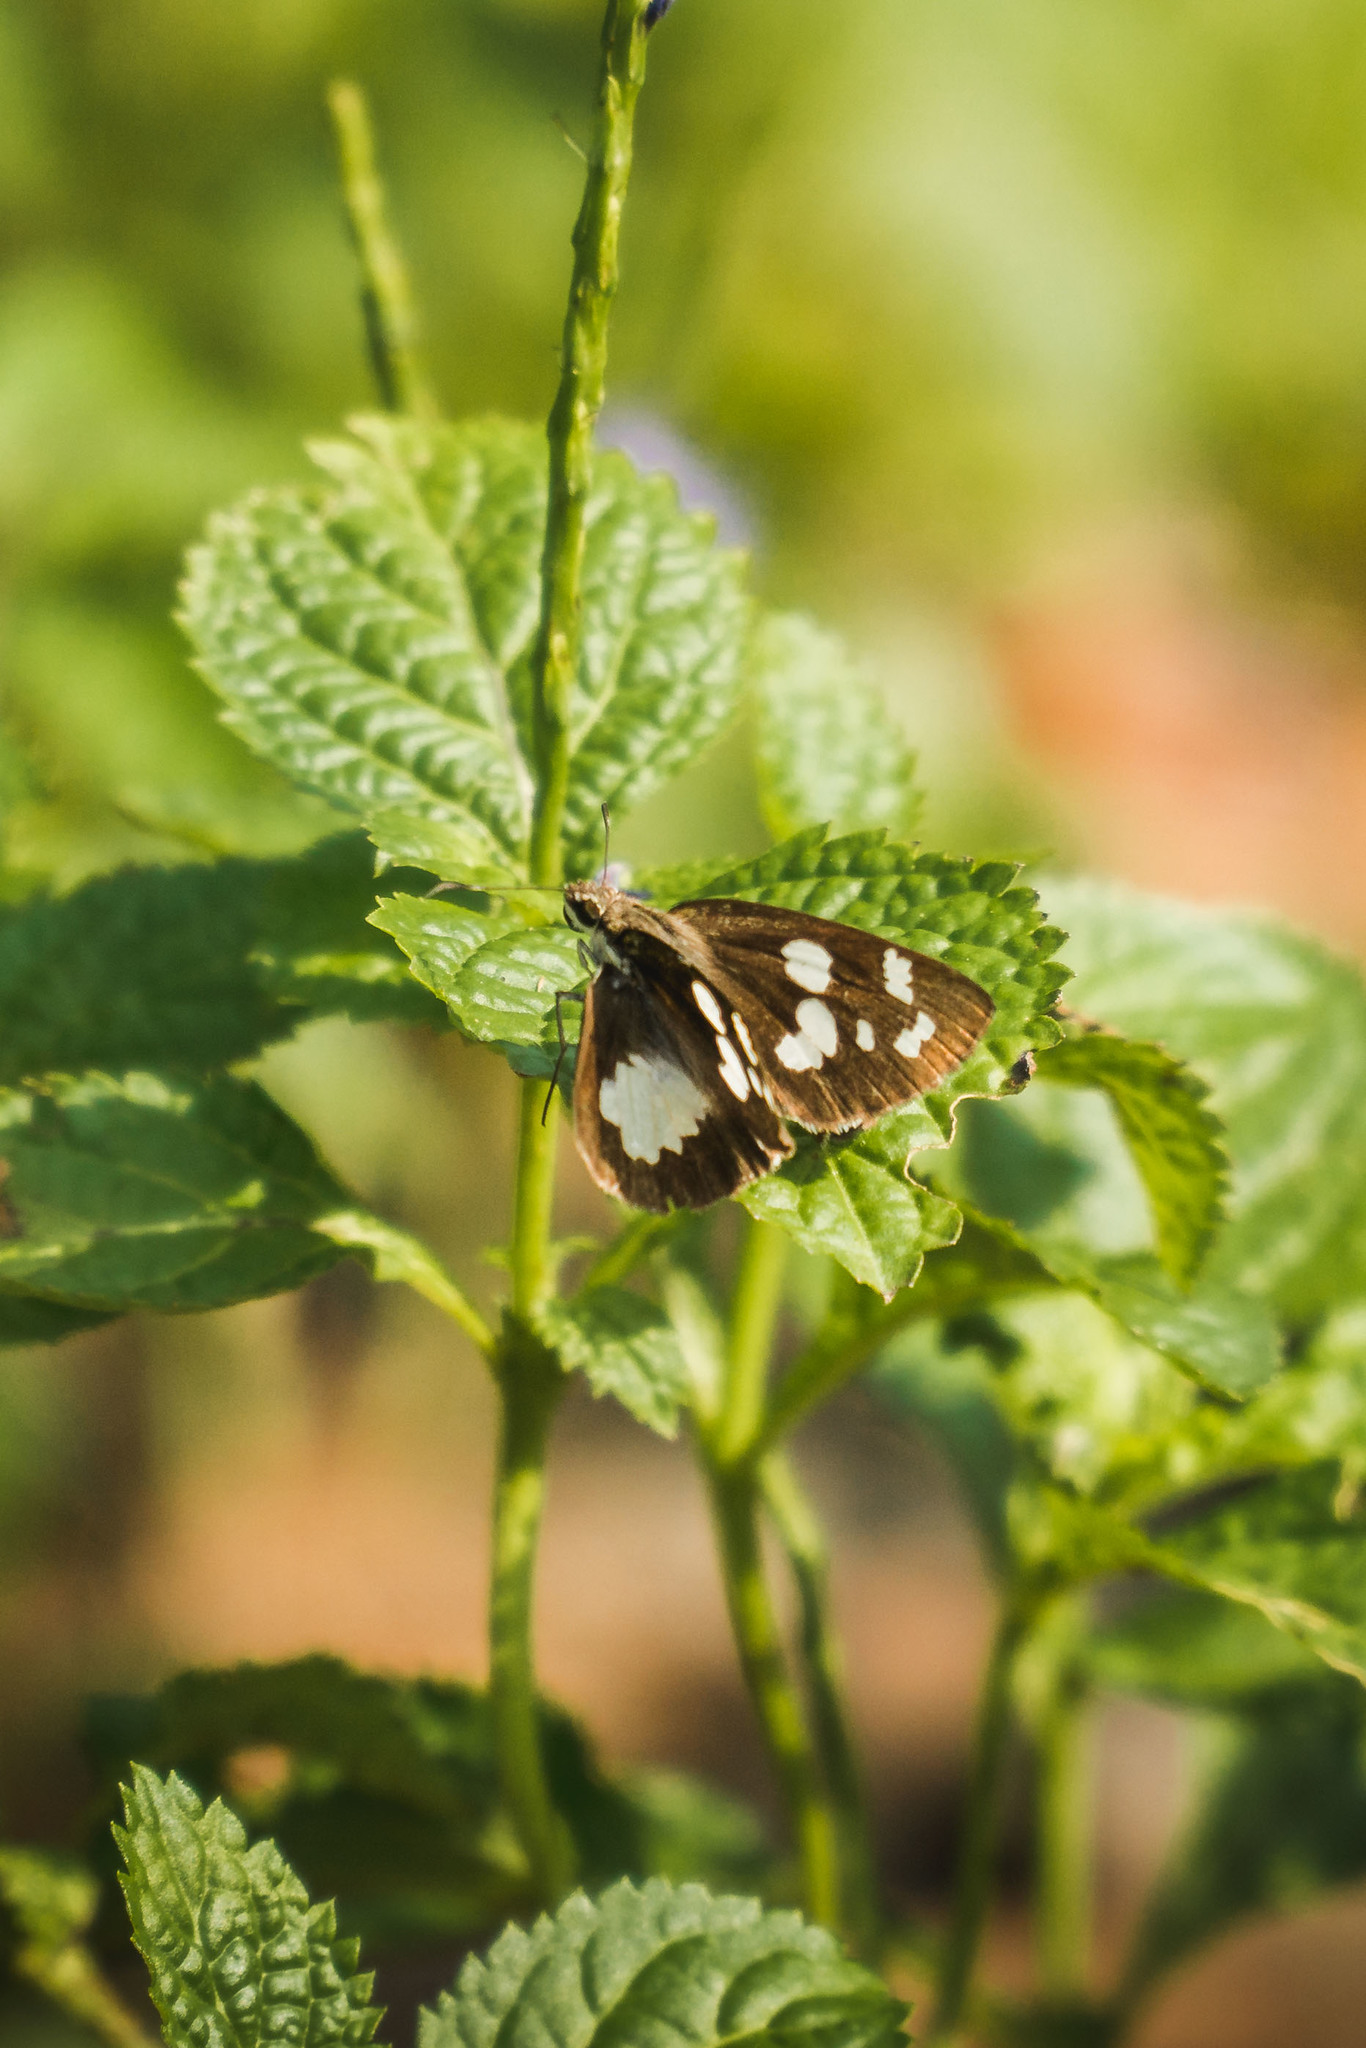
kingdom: Animalia
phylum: Arthropoda
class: Insecta
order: Lepidoptera
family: Hesperiidae
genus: Udaspes
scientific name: Udaspes folus
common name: Grass demon
